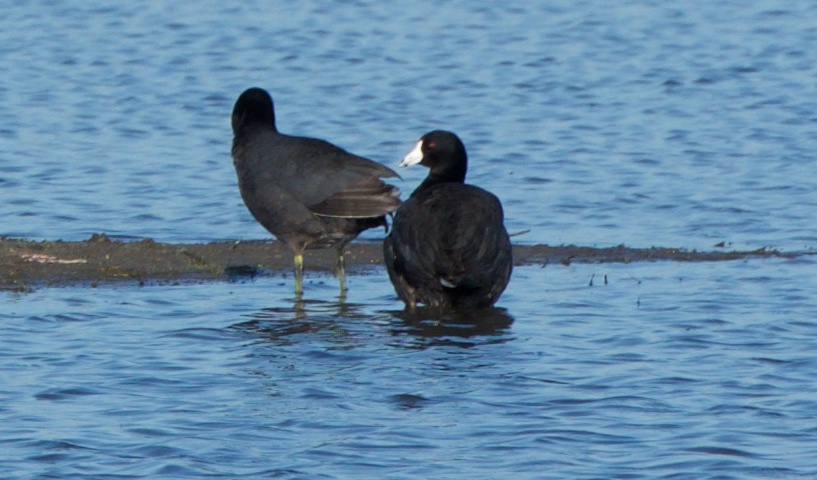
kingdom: Animalia
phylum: Chordata
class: Aves
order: Gruiformes
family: Rallidae
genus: Fulica
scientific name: Fulica americana
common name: American coot
